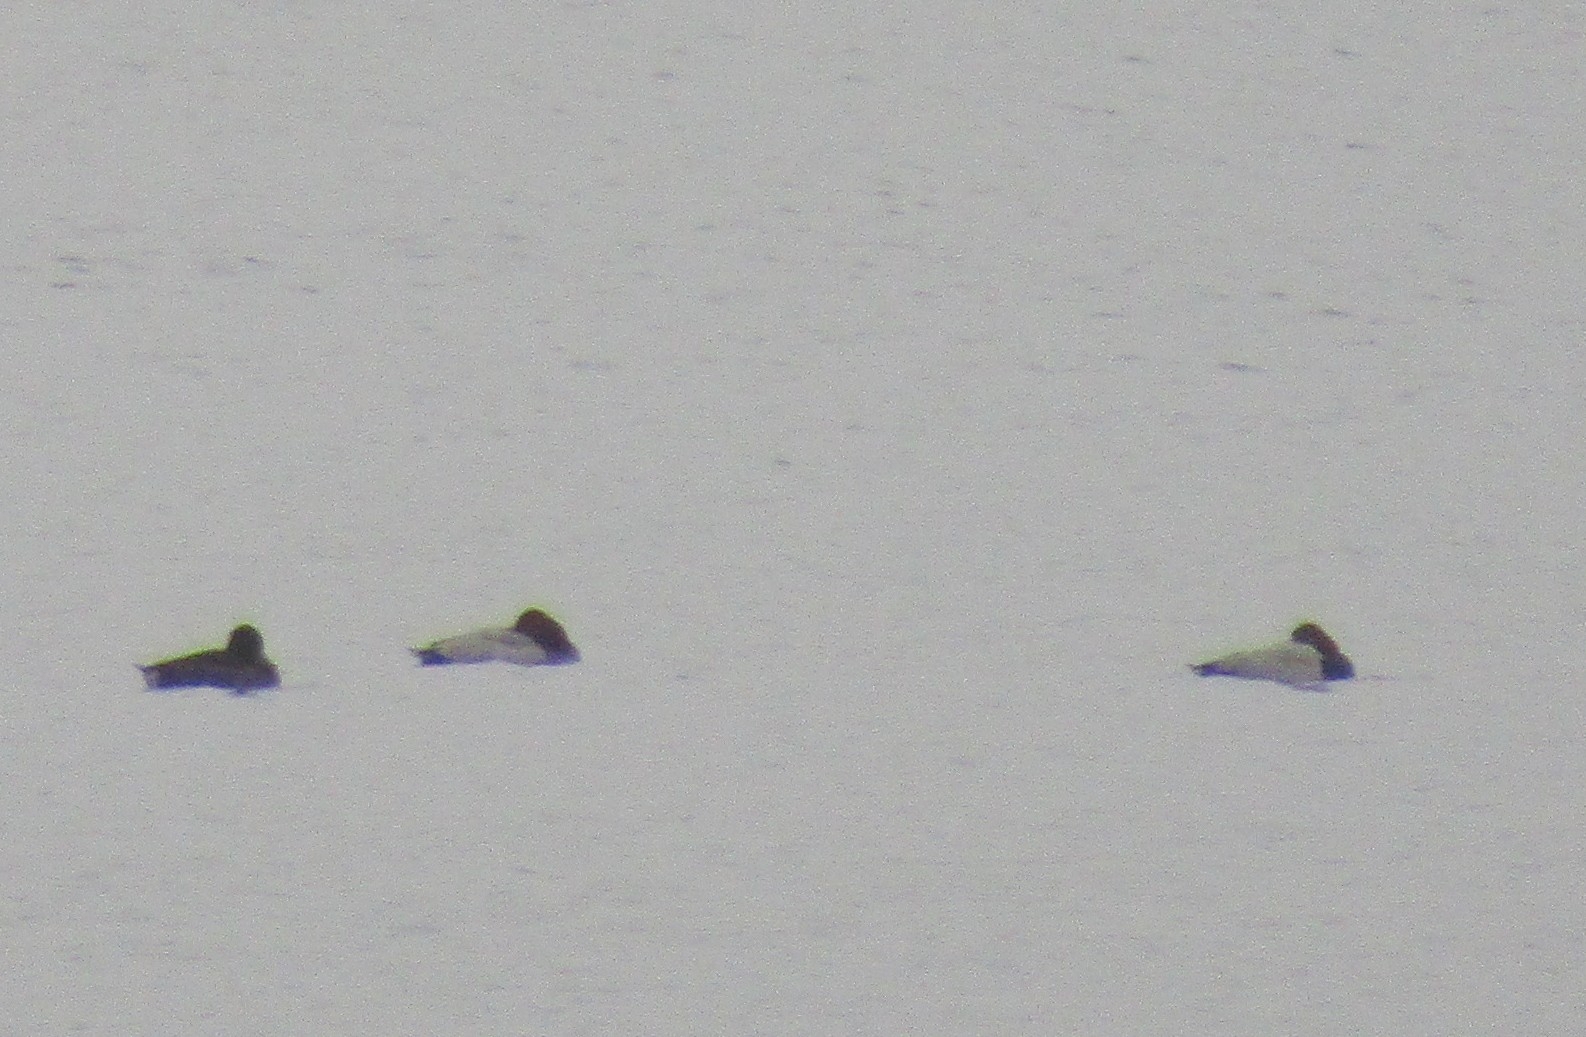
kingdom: Animalia
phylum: Chordata
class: Aves
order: Anseriformes
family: Anatidae
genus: Aythya
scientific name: Aythya ferina
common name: Common pochard
